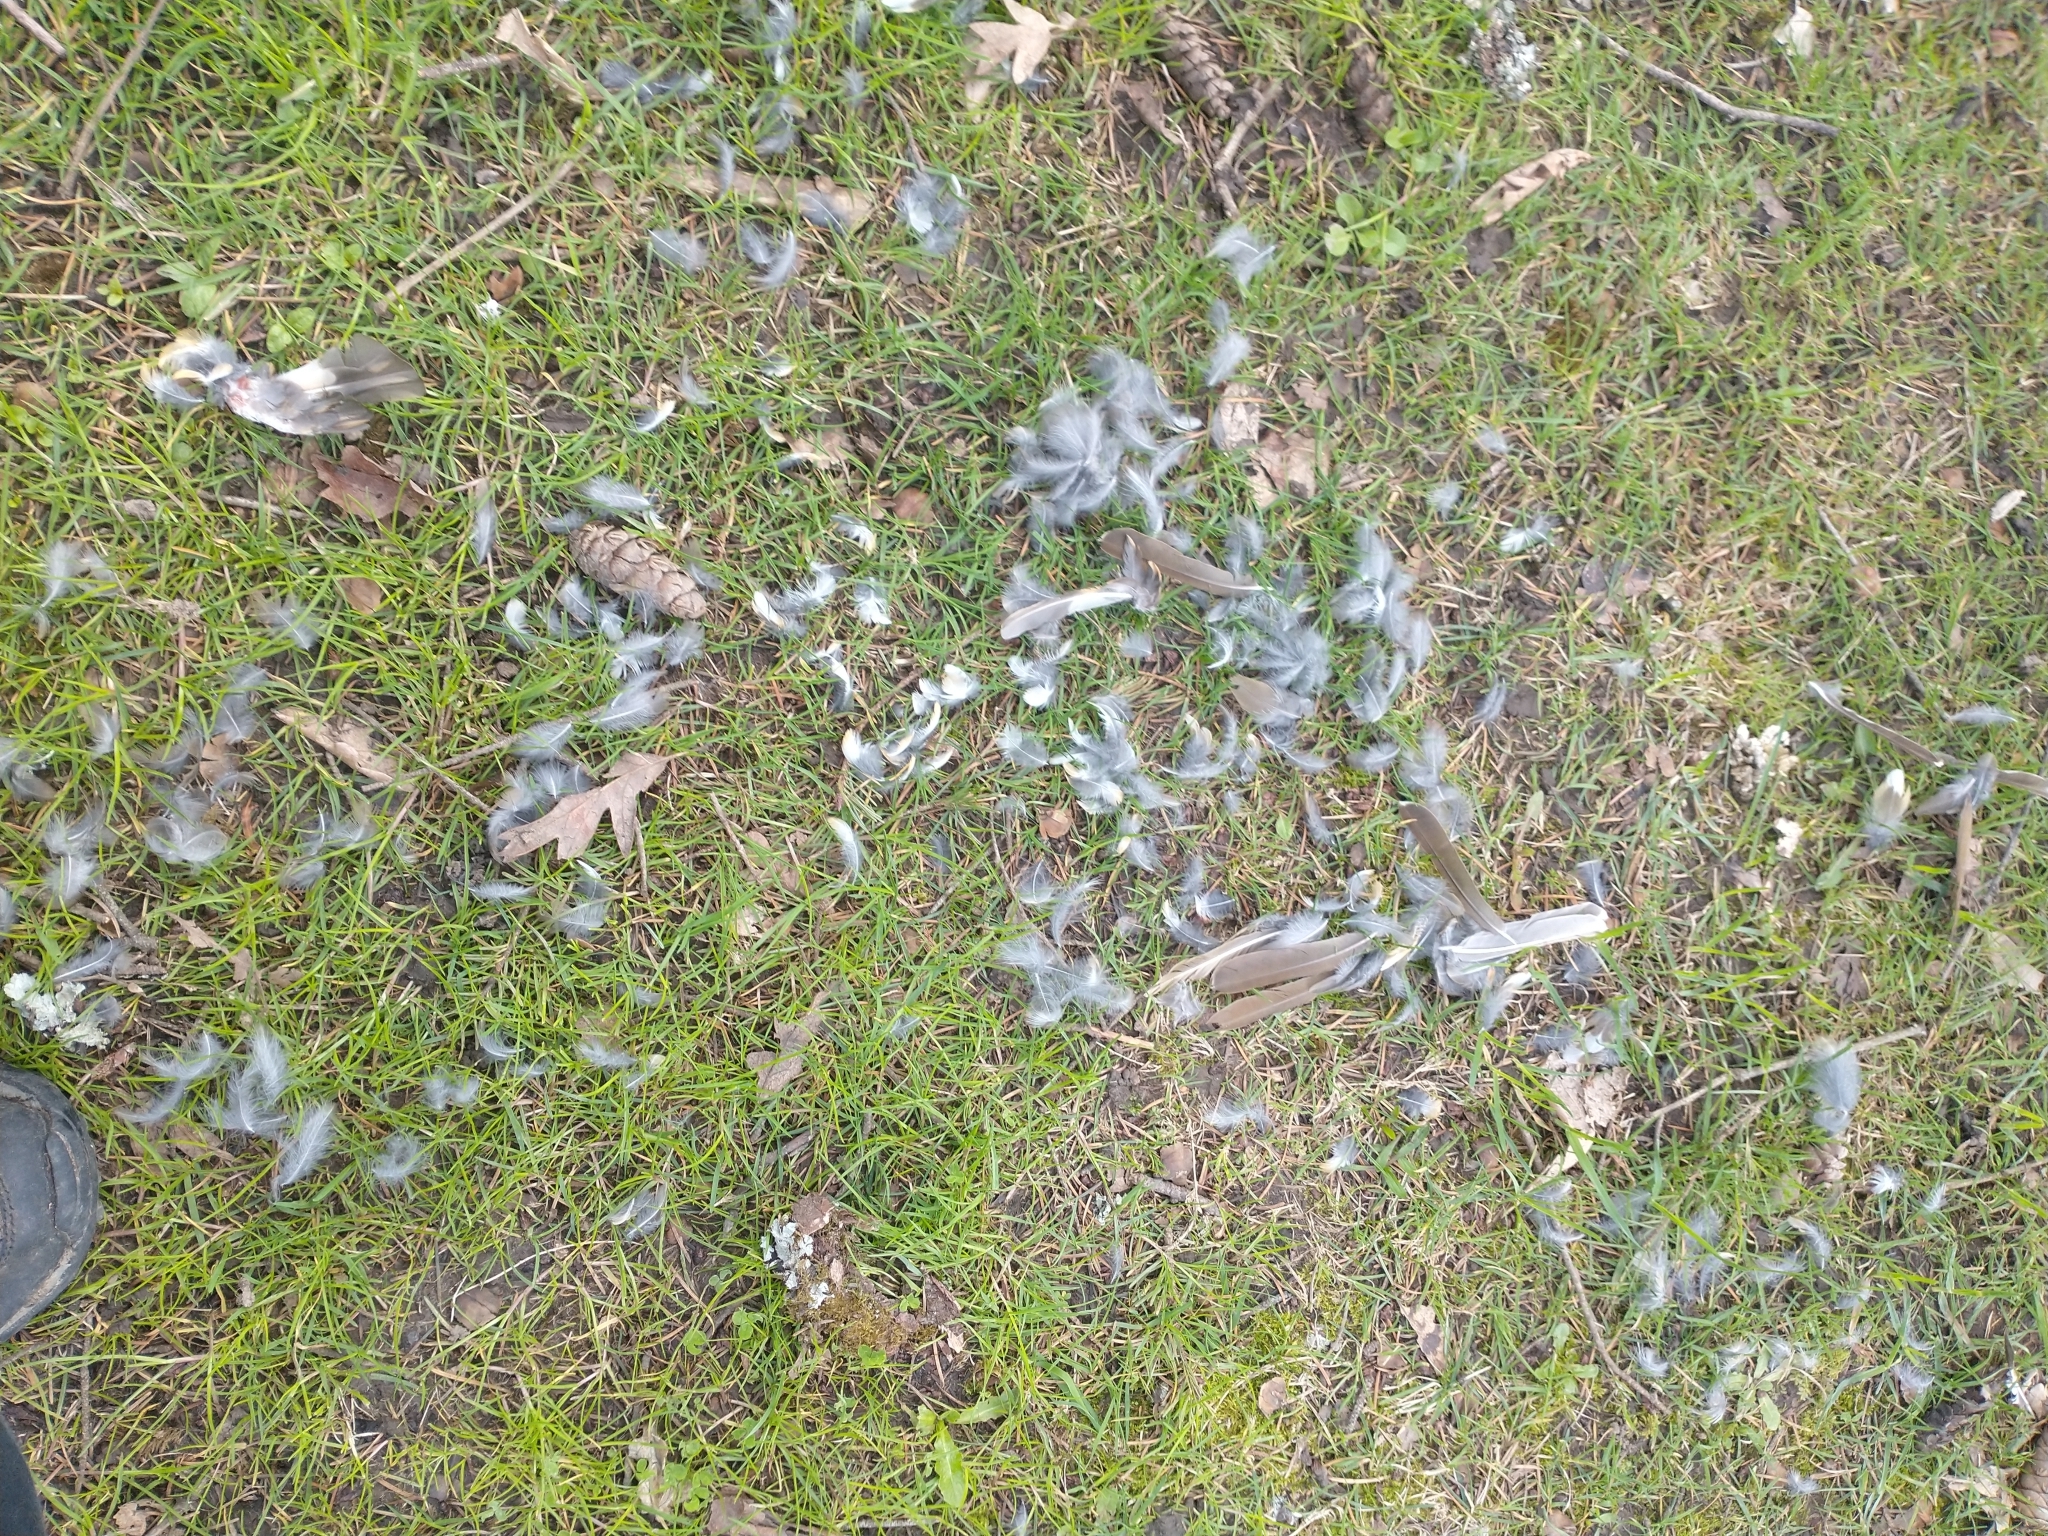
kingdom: Animalia
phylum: Chordata
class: Aves
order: Passeriformes
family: Turdidae
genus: Ixoreus
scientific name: Ixoreus naevius
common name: Varied thrush
